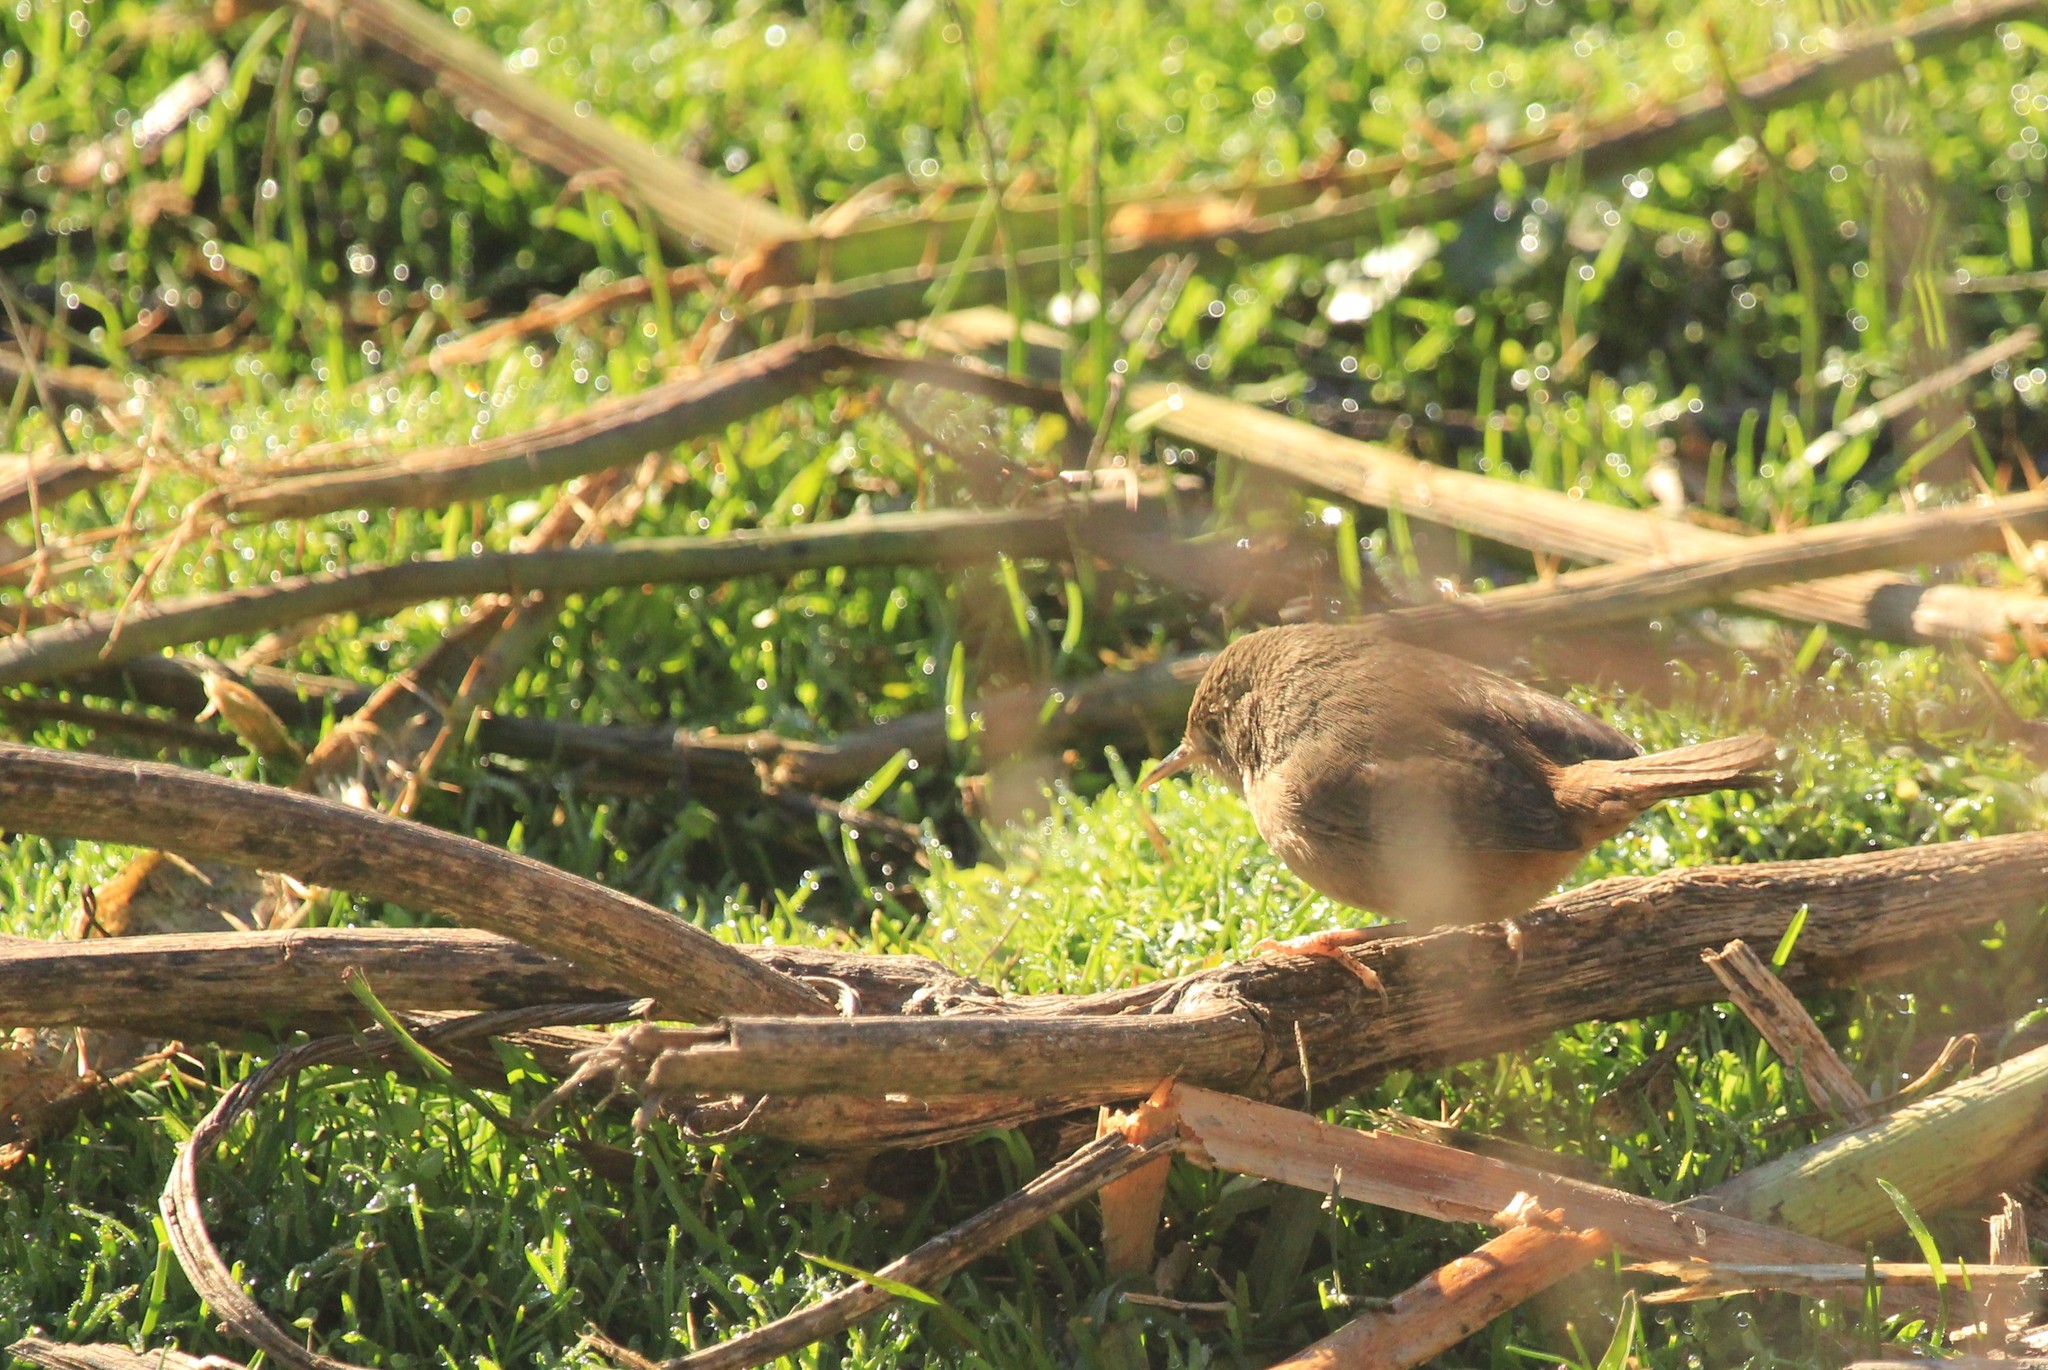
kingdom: Animalia
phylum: Chordata
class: Aves
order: Passeriformes
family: Troglodytidae
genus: Troglodytes
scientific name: Troglodytes aedon
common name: House wren
